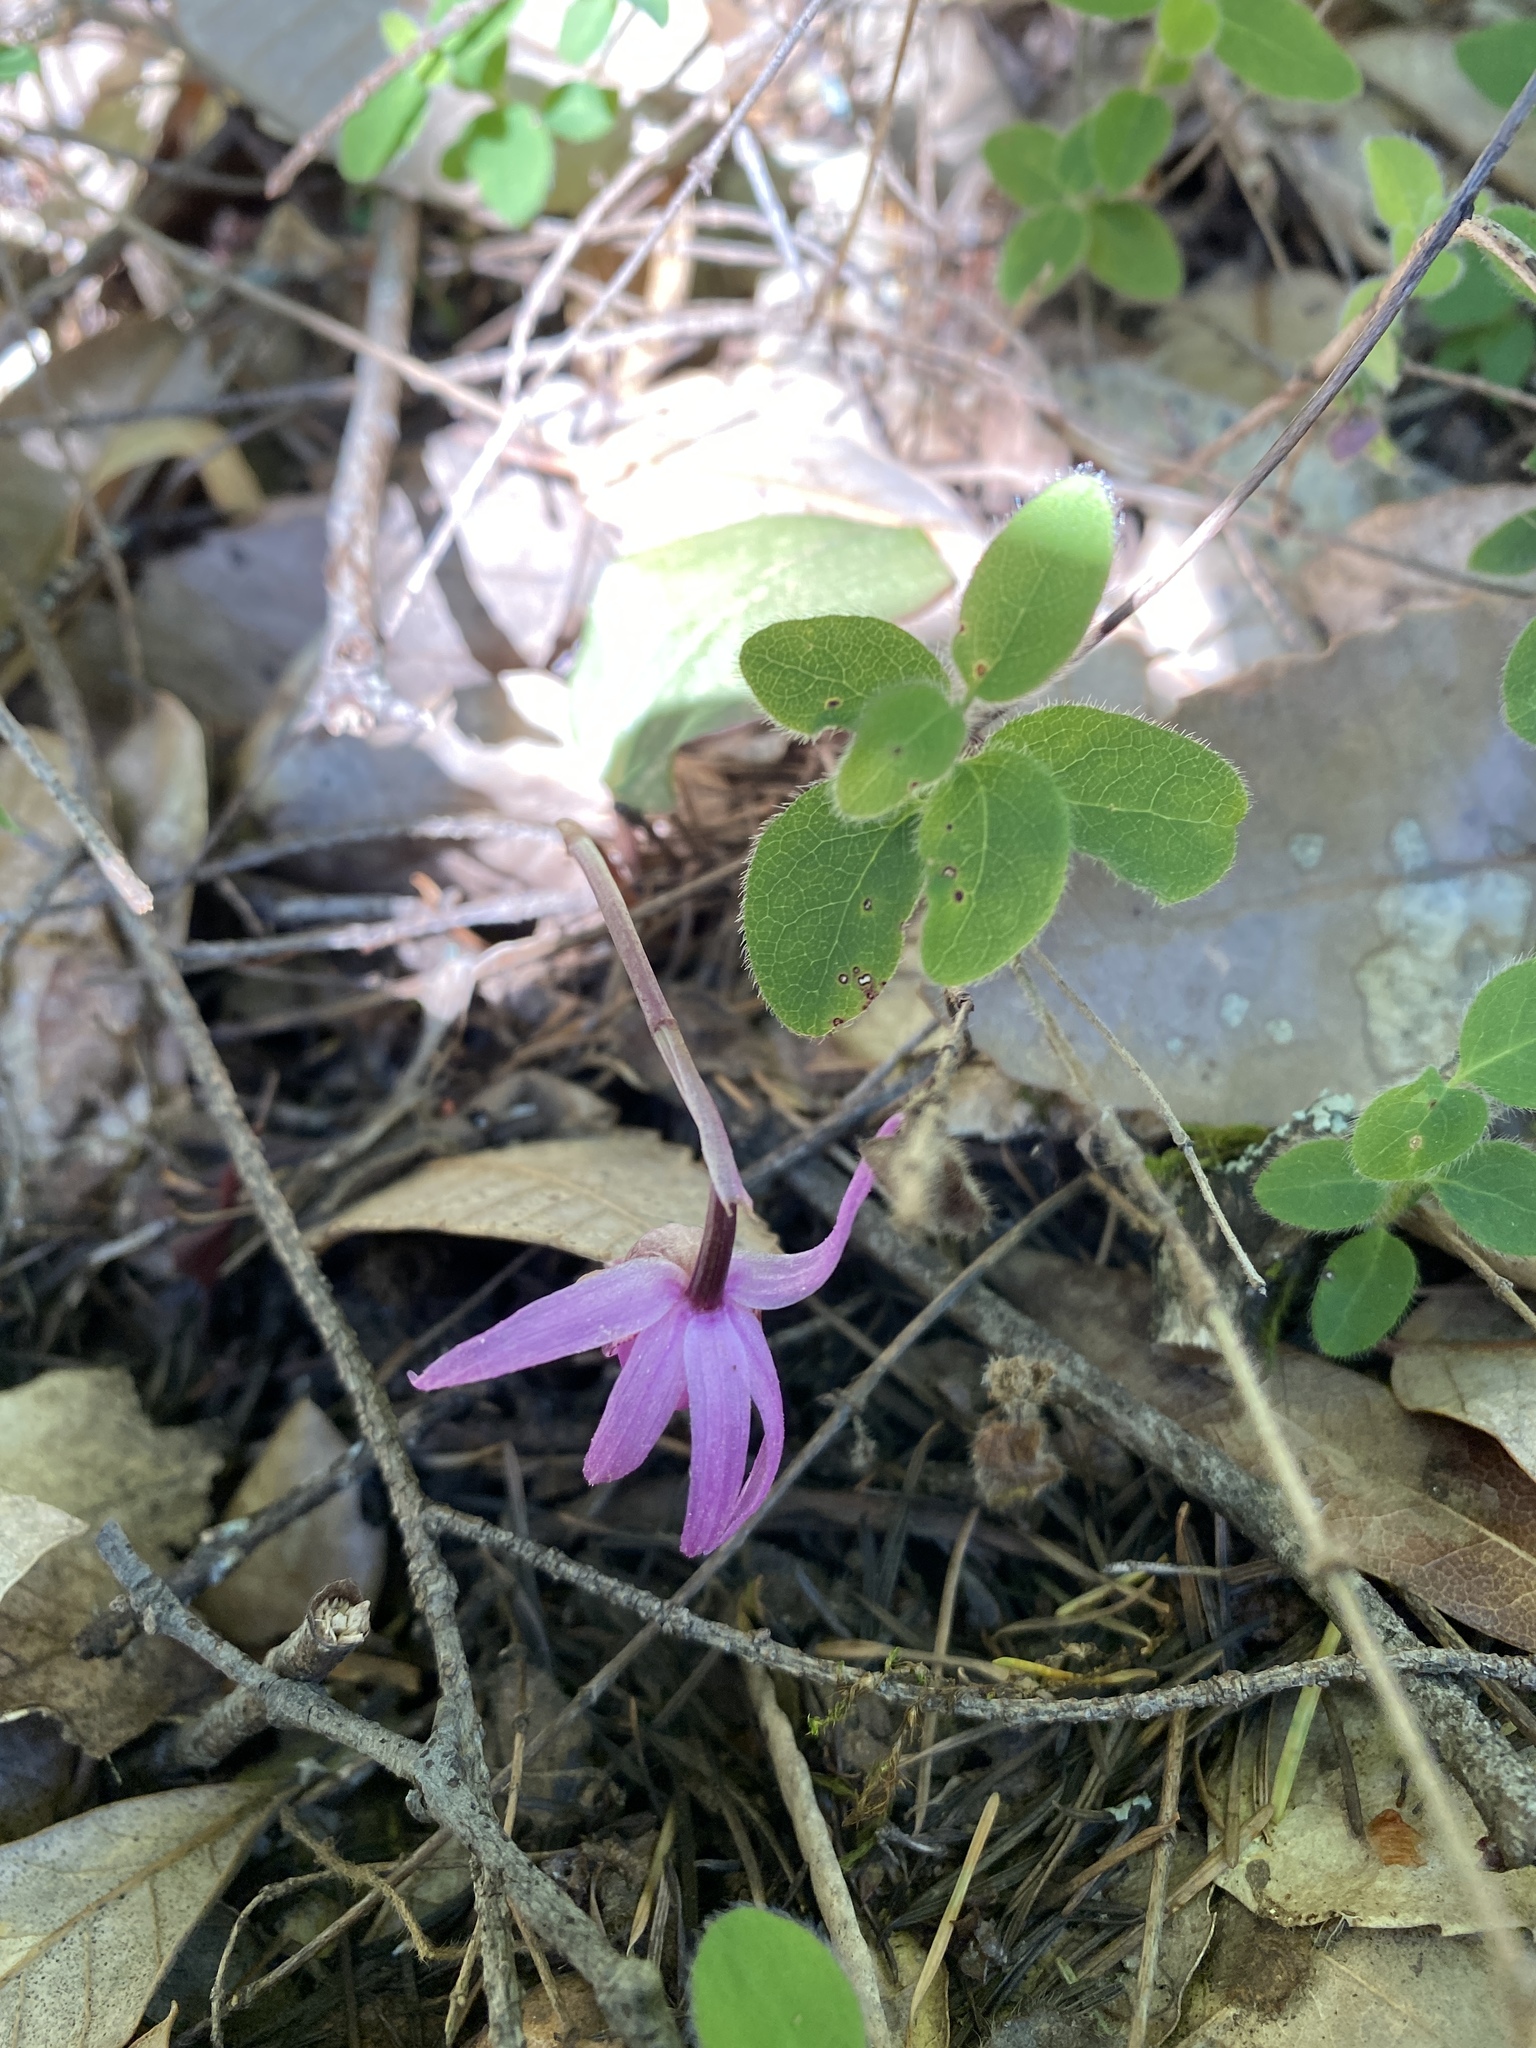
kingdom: Plantae
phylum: Tracheophyta
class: Liliopsida
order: Asparagales
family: Orchidaceae
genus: Calypso
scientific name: Calypso bulbosa
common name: Calypso
